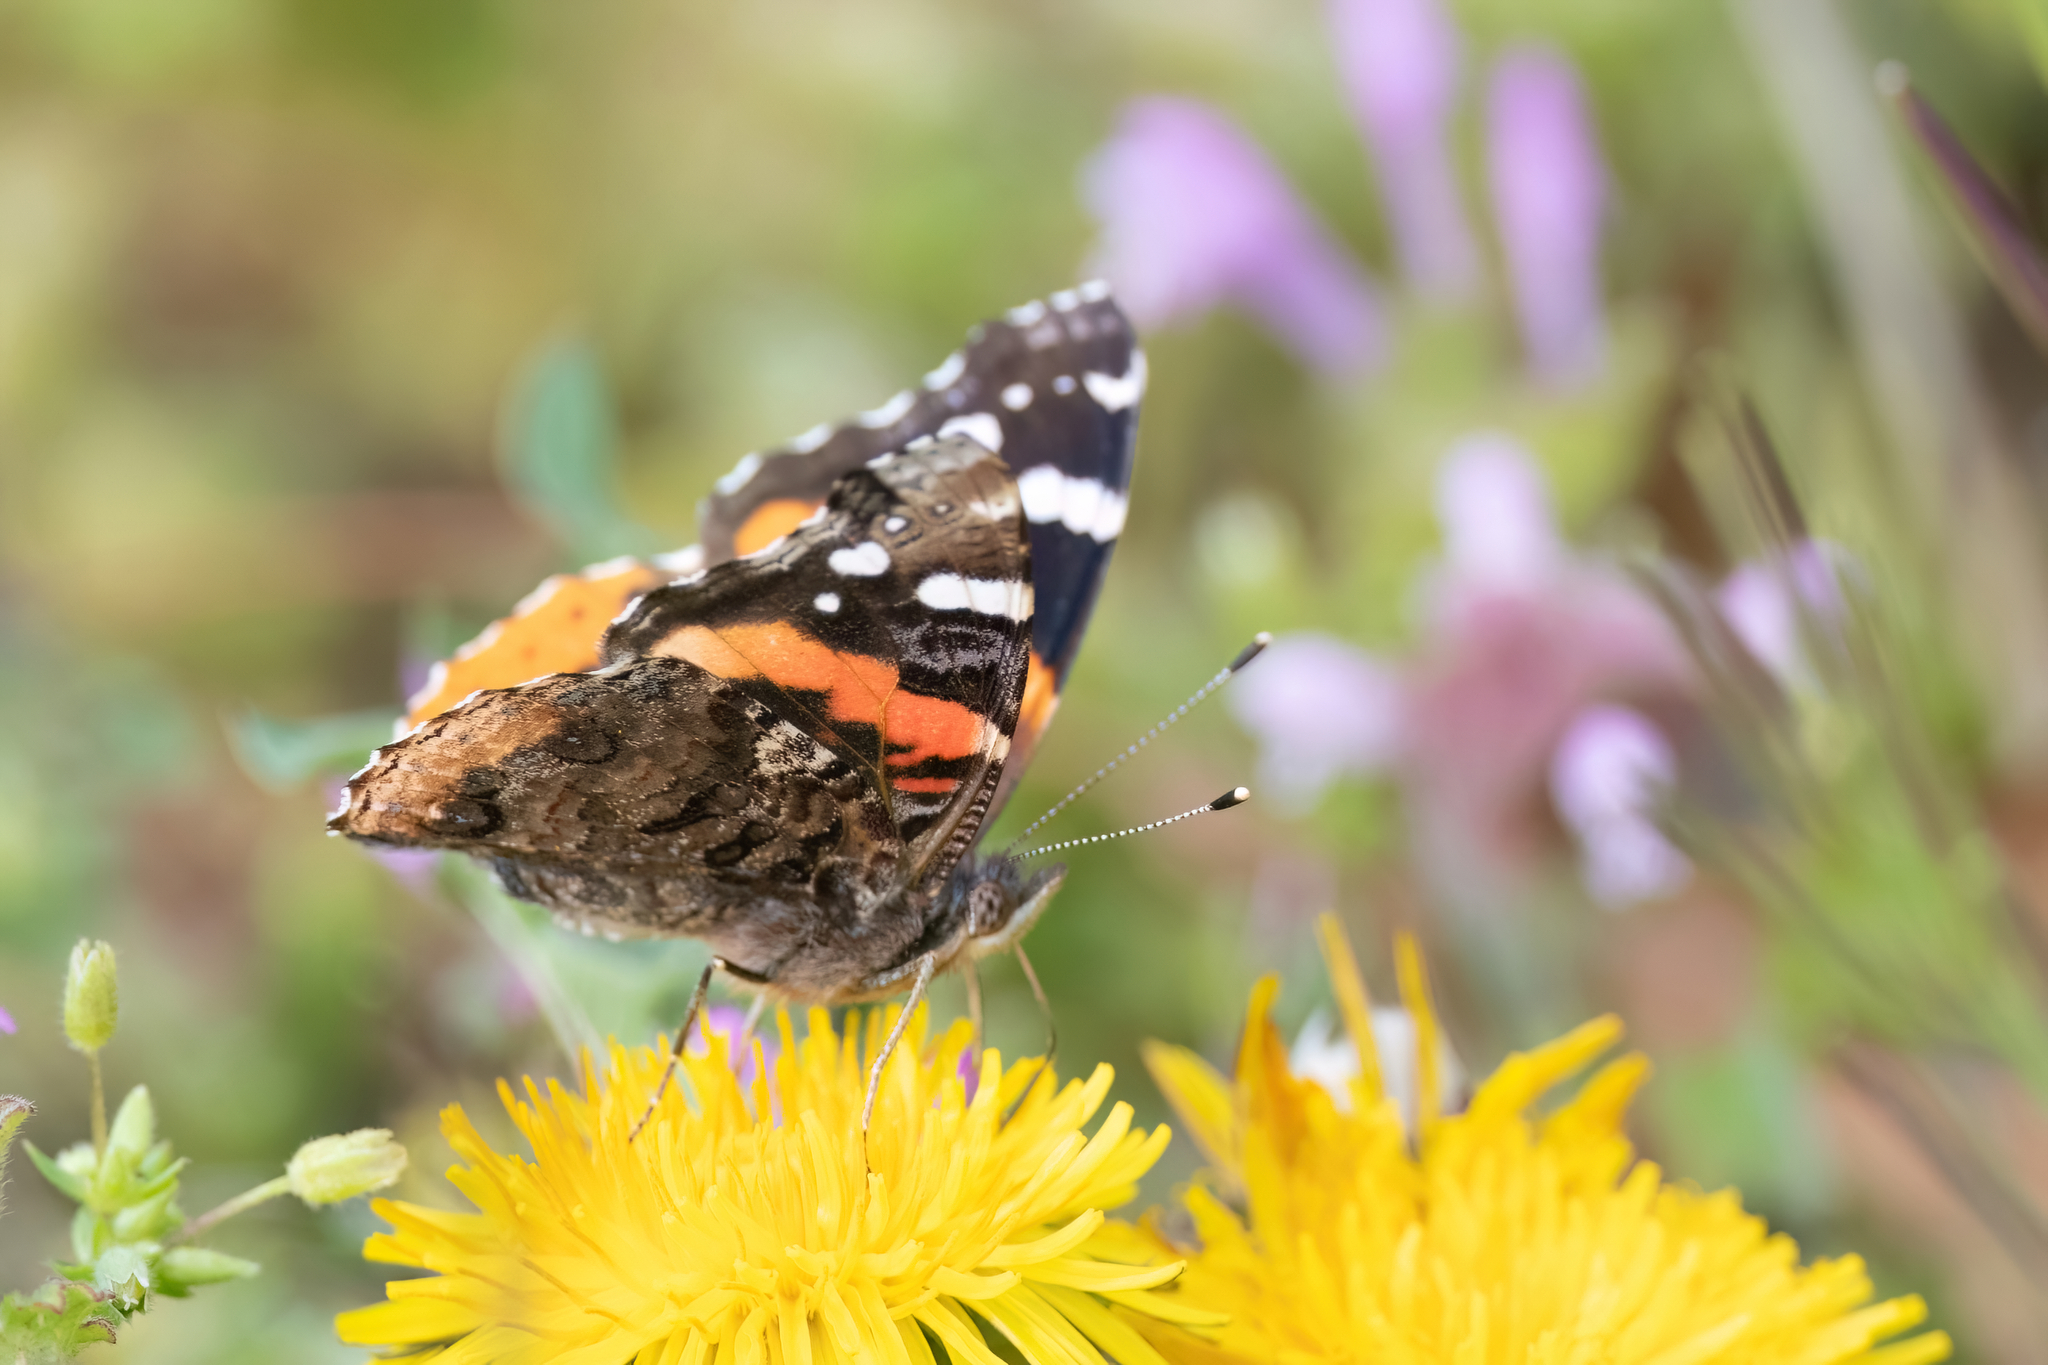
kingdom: Animalia
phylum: Arthropoda
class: Insecta
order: Lepidoptera
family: Nymphalidae
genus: Vanessa
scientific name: Vanessa atalanta
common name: Red admiral
